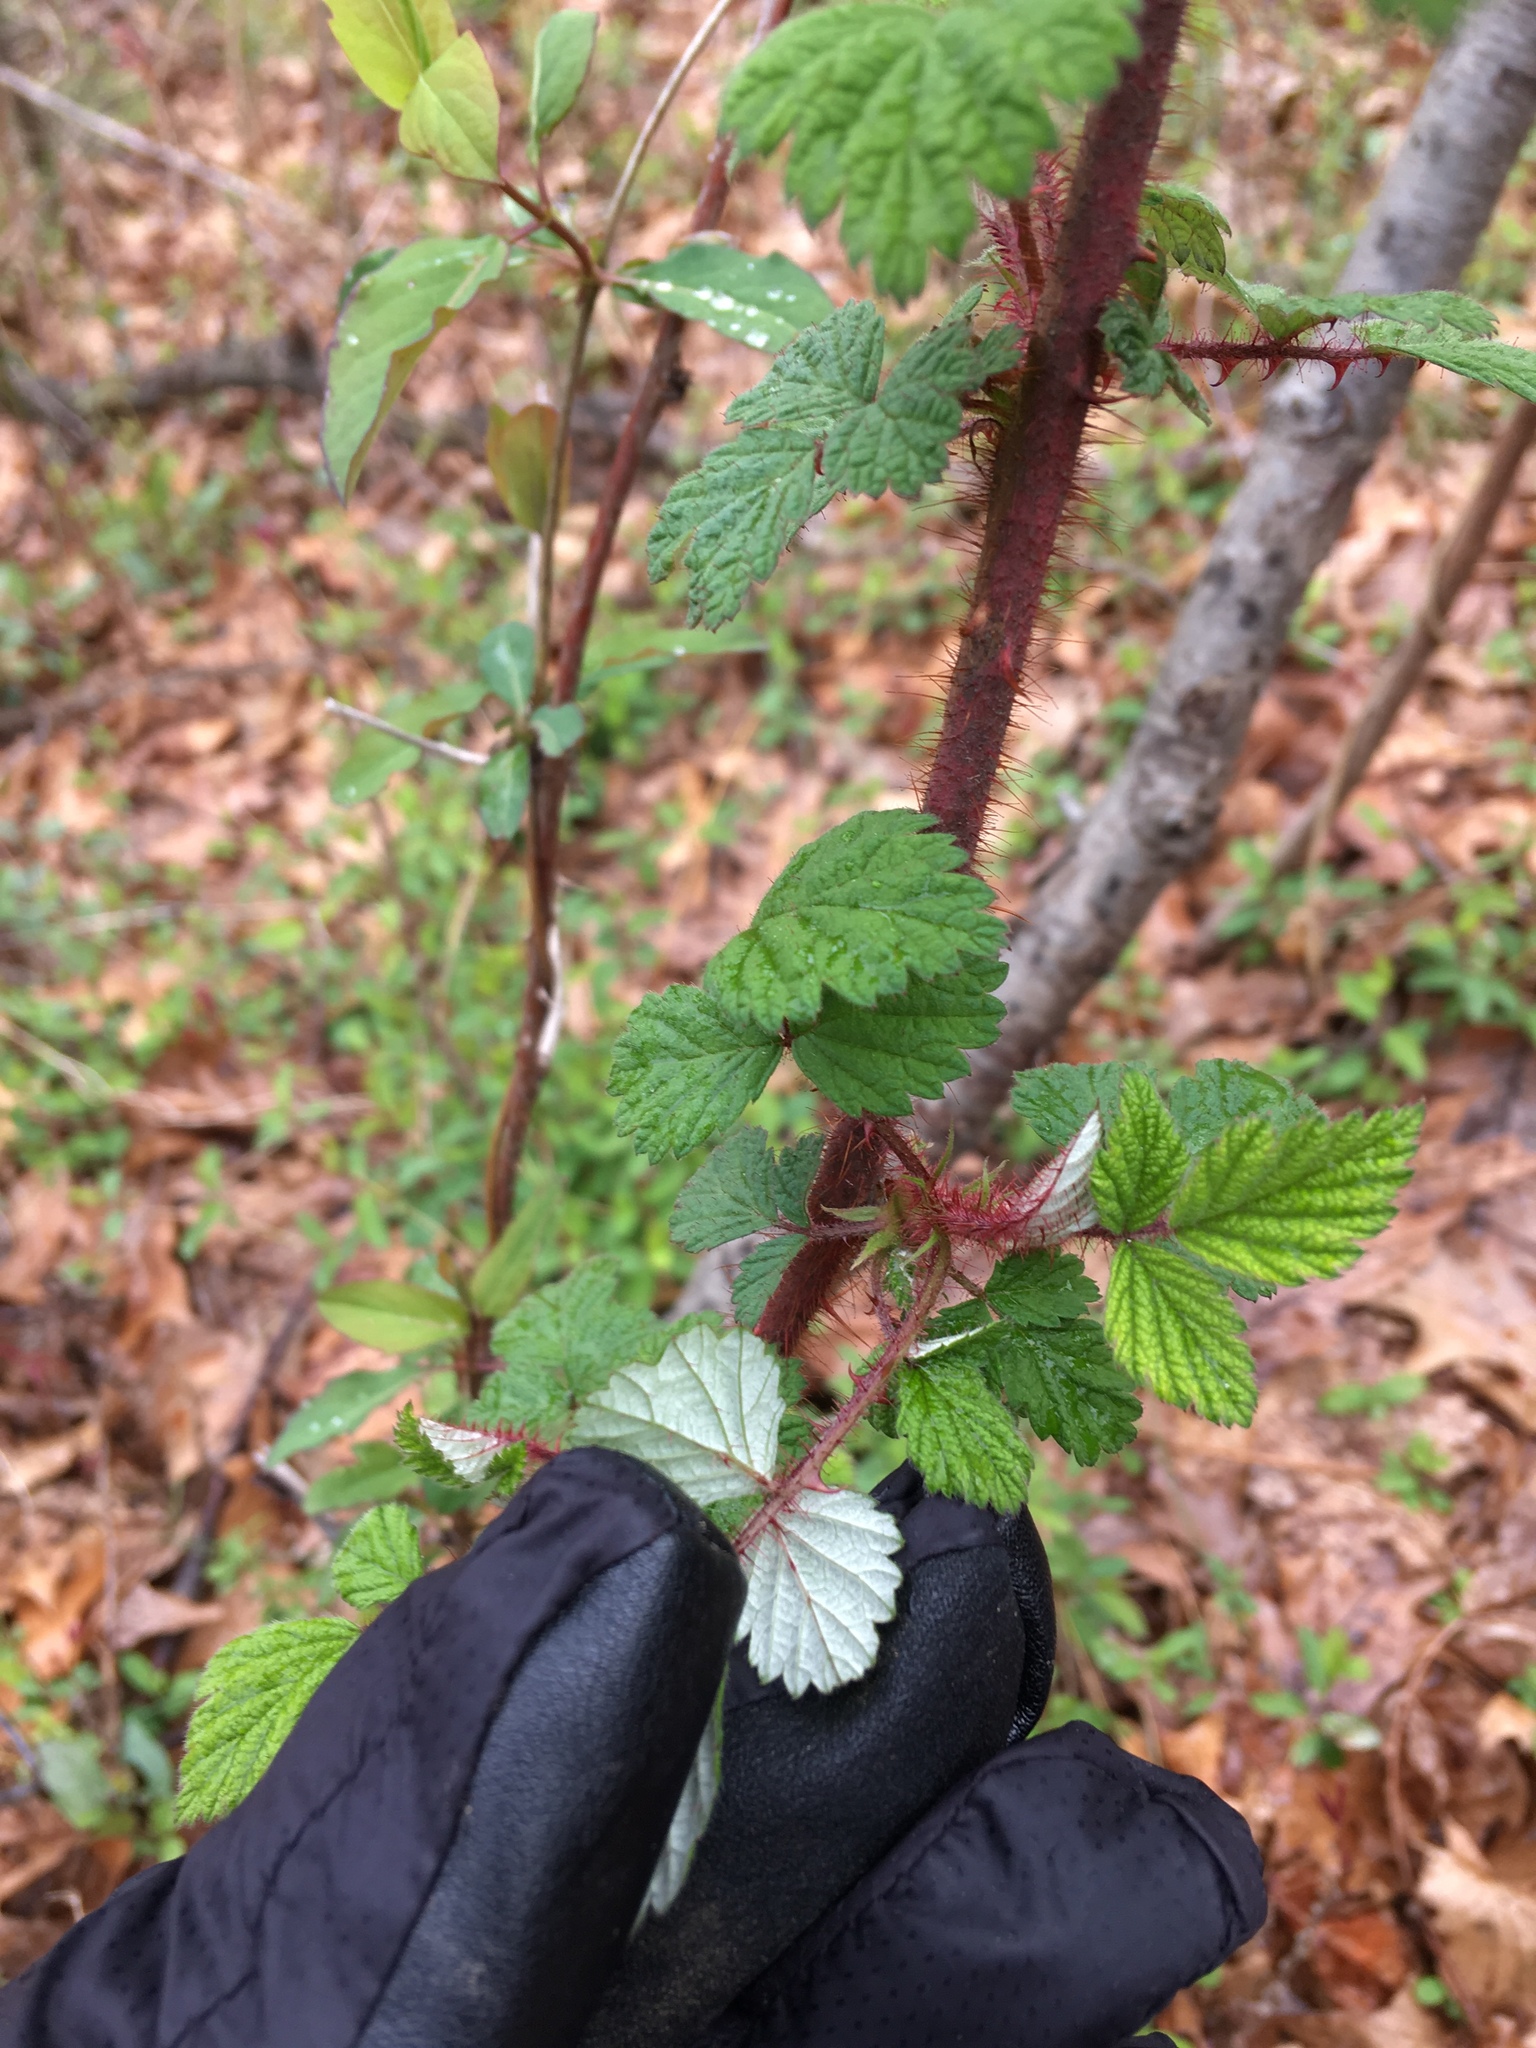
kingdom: Plantae
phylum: Tracheophyta
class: Magnoliopsida
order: Rosales
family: Rosaceae
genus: Rubus
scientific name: Rubus phoenicolasius
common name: Japanese wineberry
